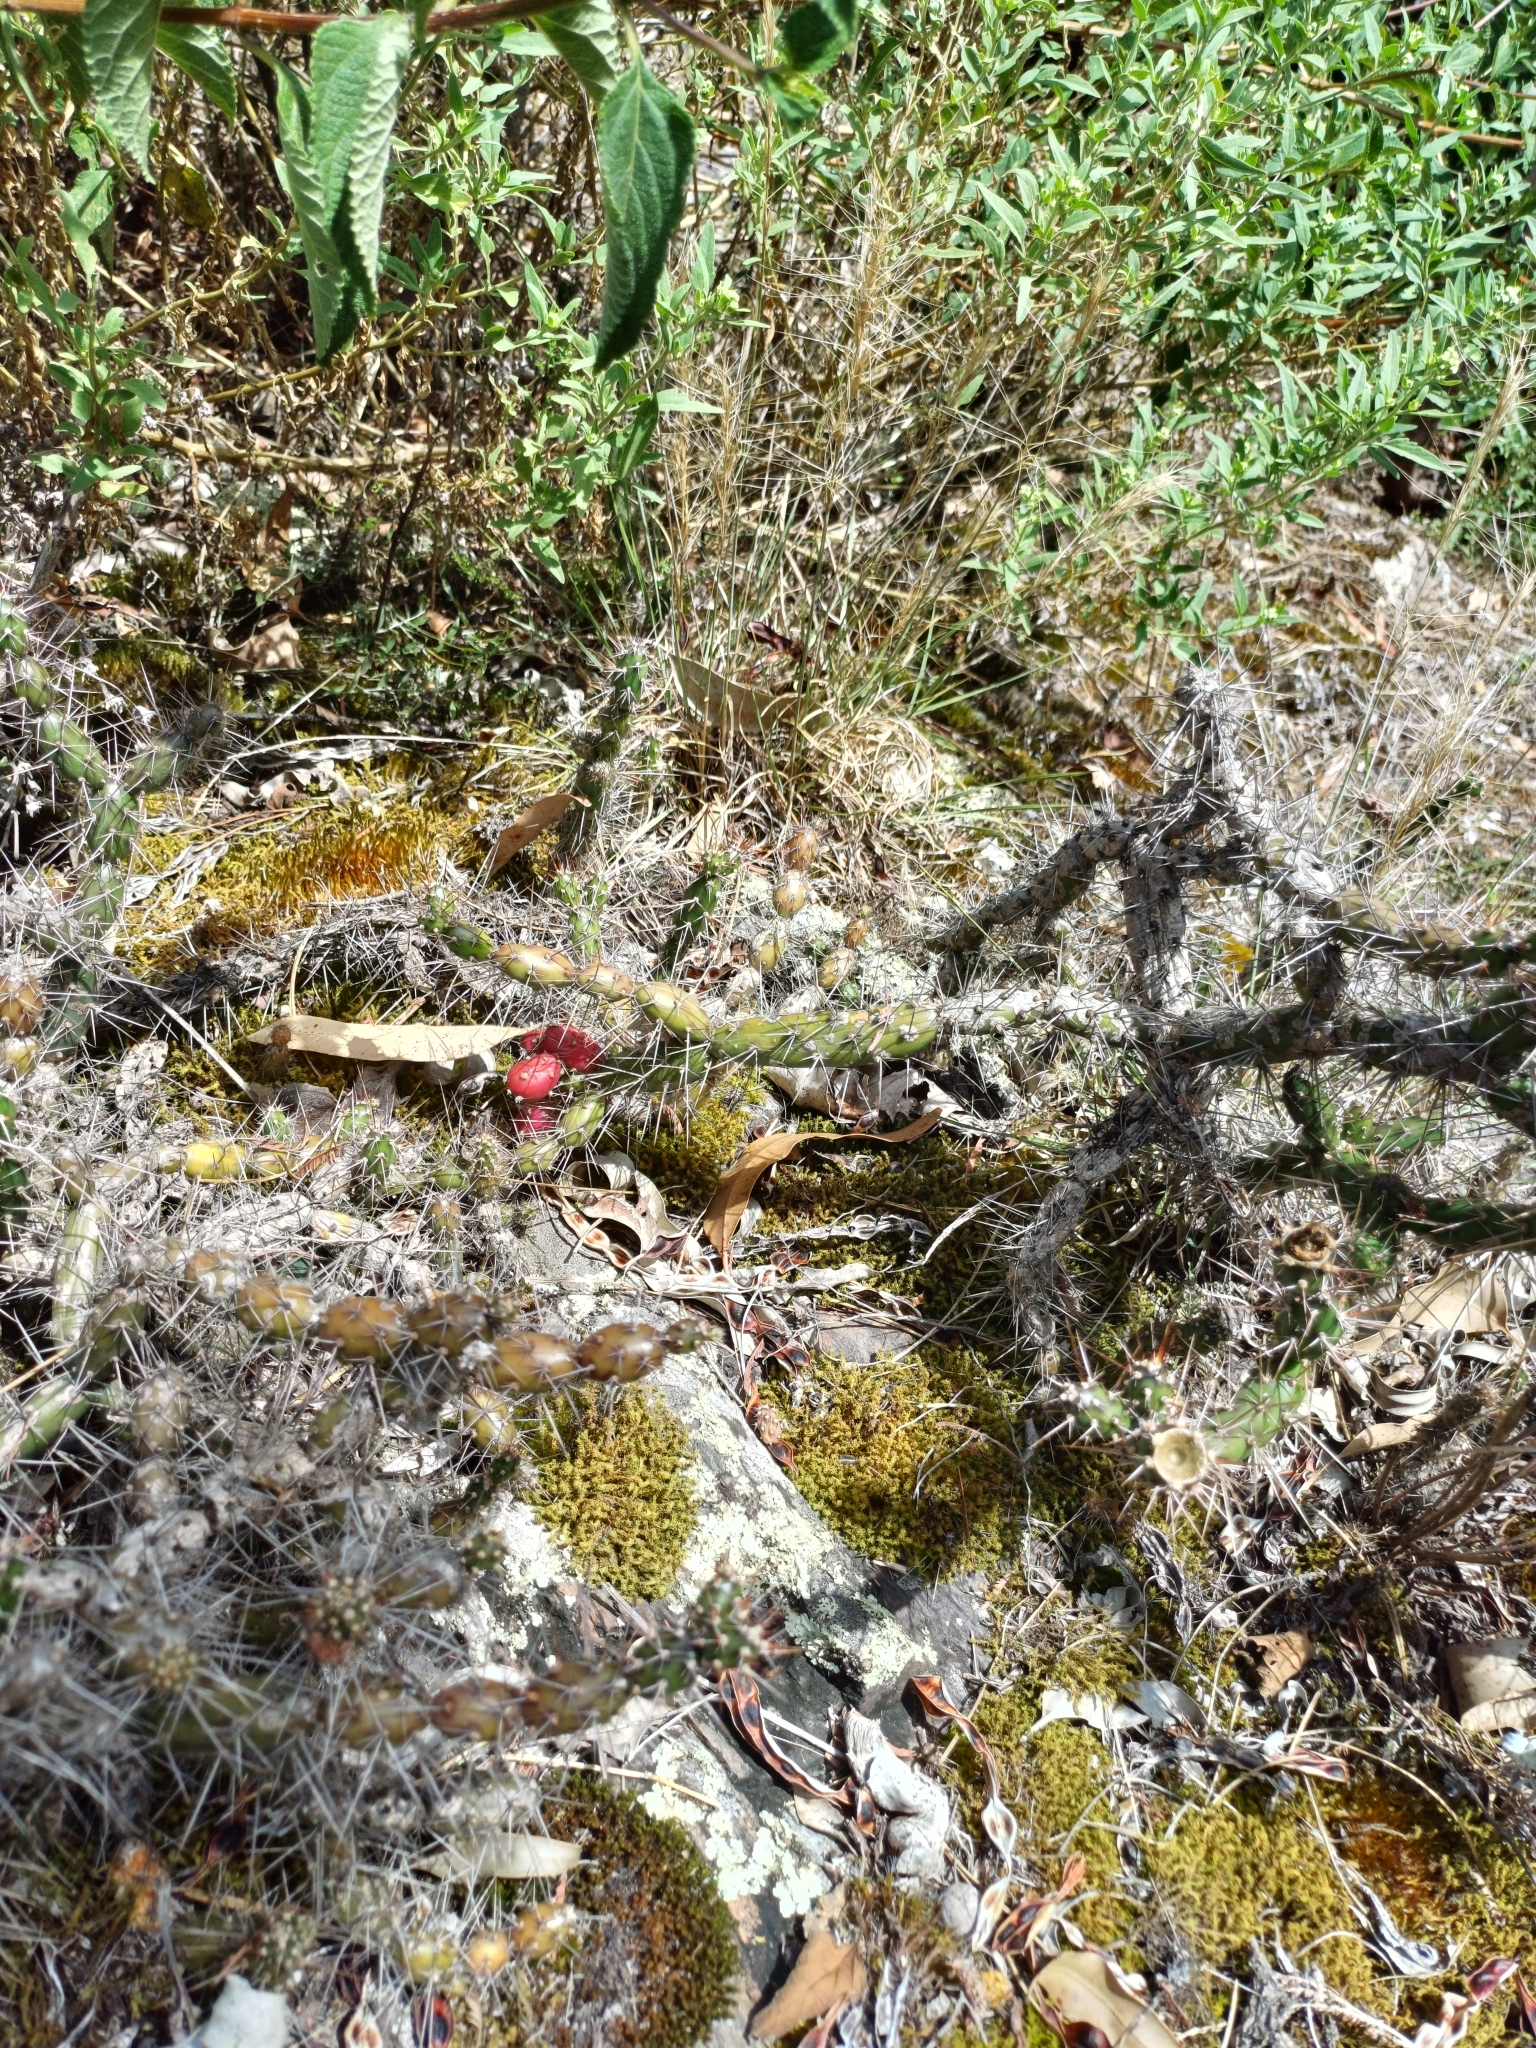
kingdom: Plantae
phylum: Tracheophyta
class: Magnoliopsida
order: Caryophyllales
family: Cactaceae
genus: Opuntia
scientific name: Opuntia aurantiaca
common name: Jointed pricklypear
